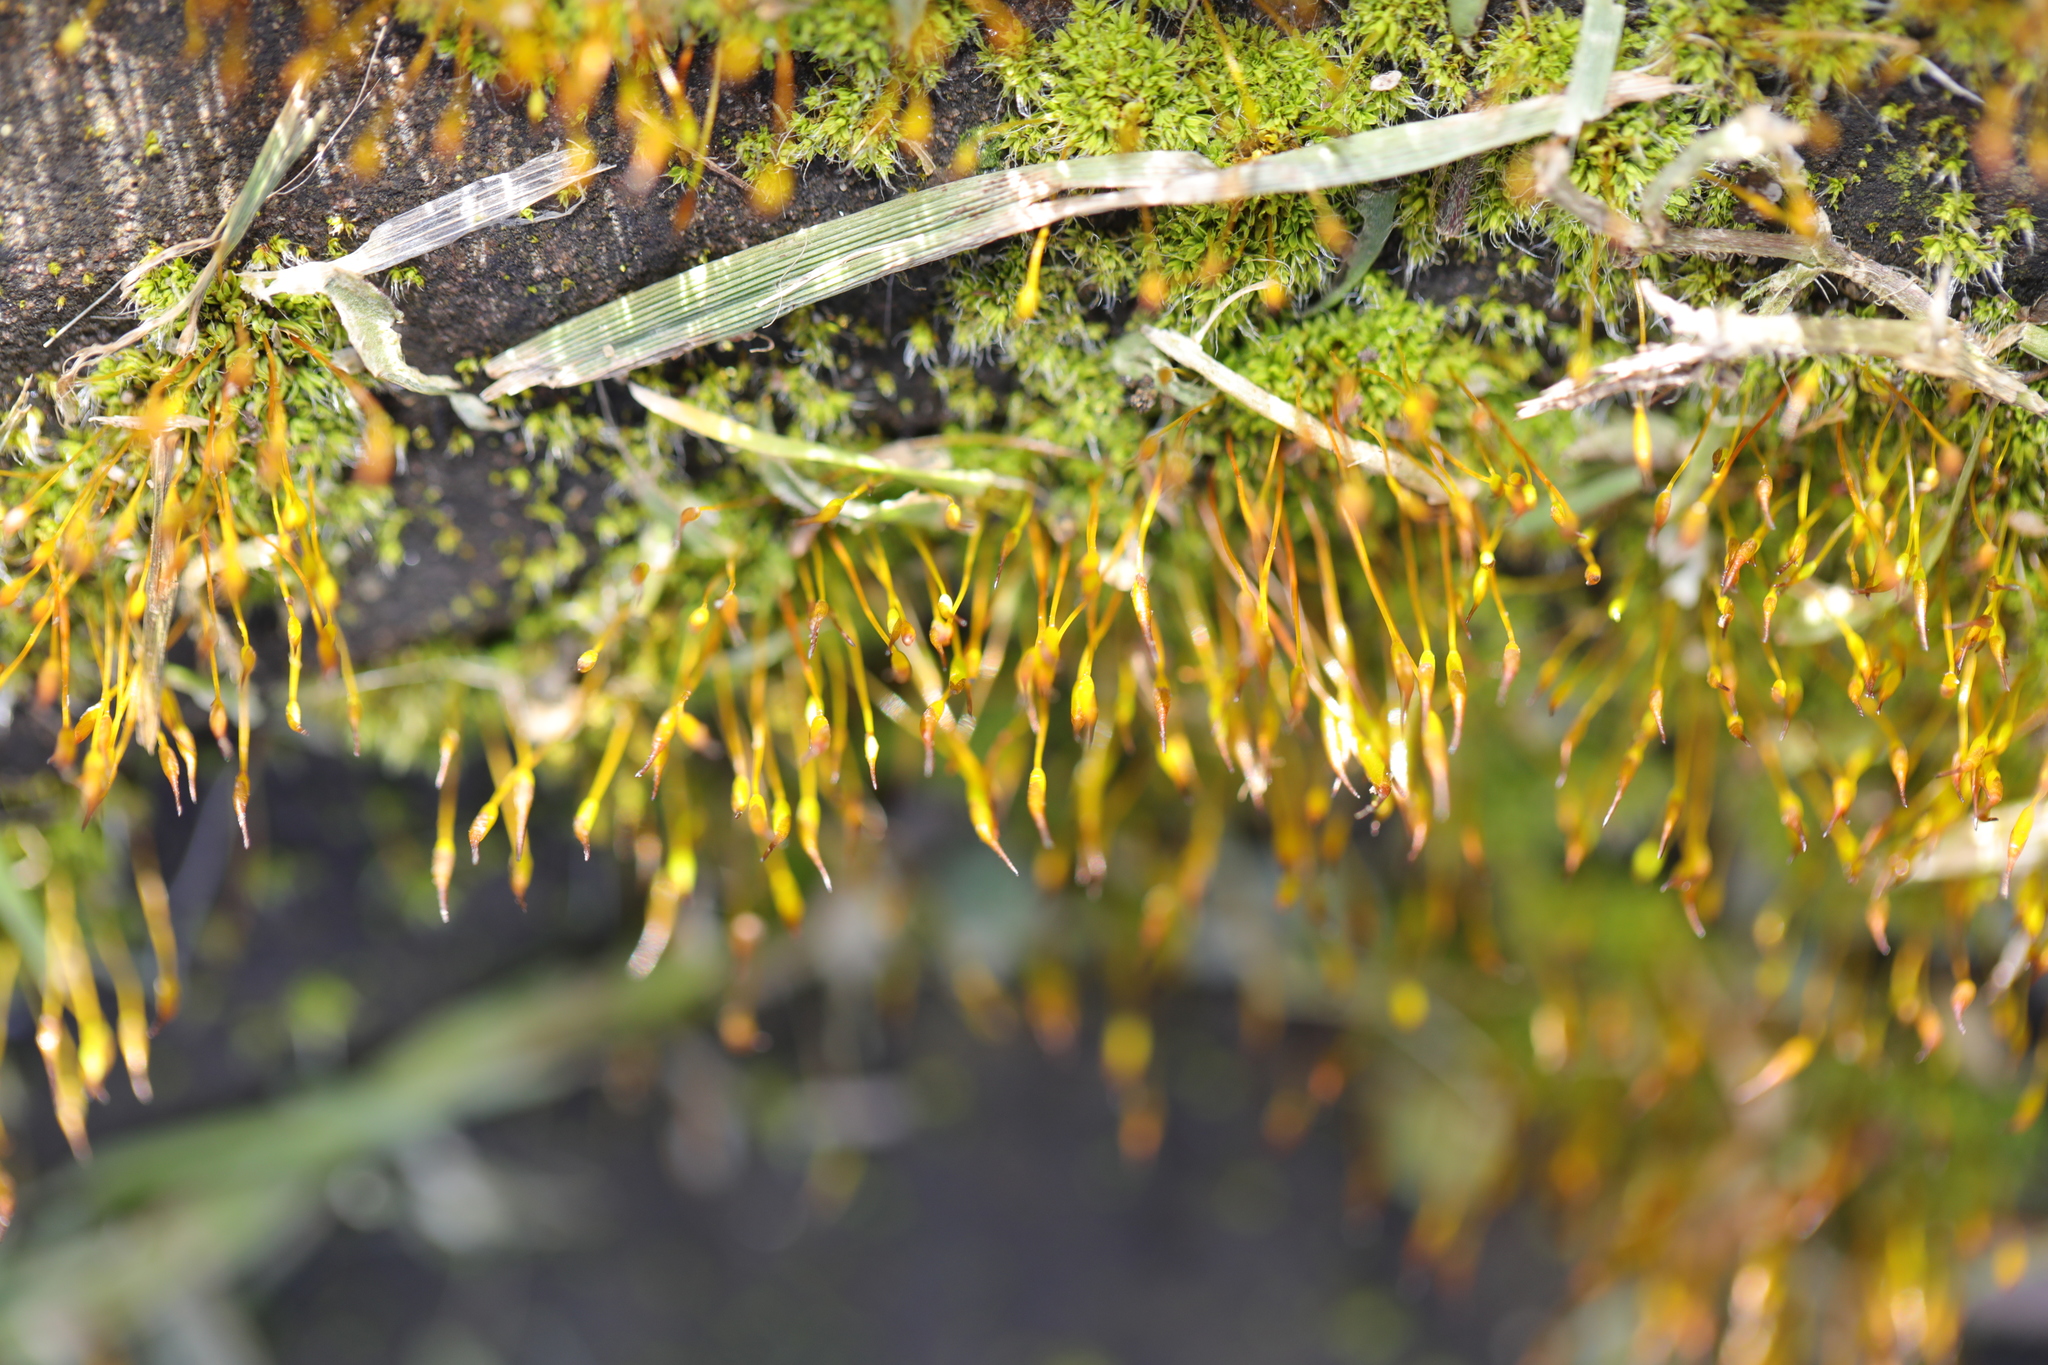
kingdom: Plantae
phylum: Bryophyta
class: Bryopsida
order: Pottiales
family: Pottiaceae
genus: Tortula
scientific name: Tortula muralis
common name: Wall screw-moss
